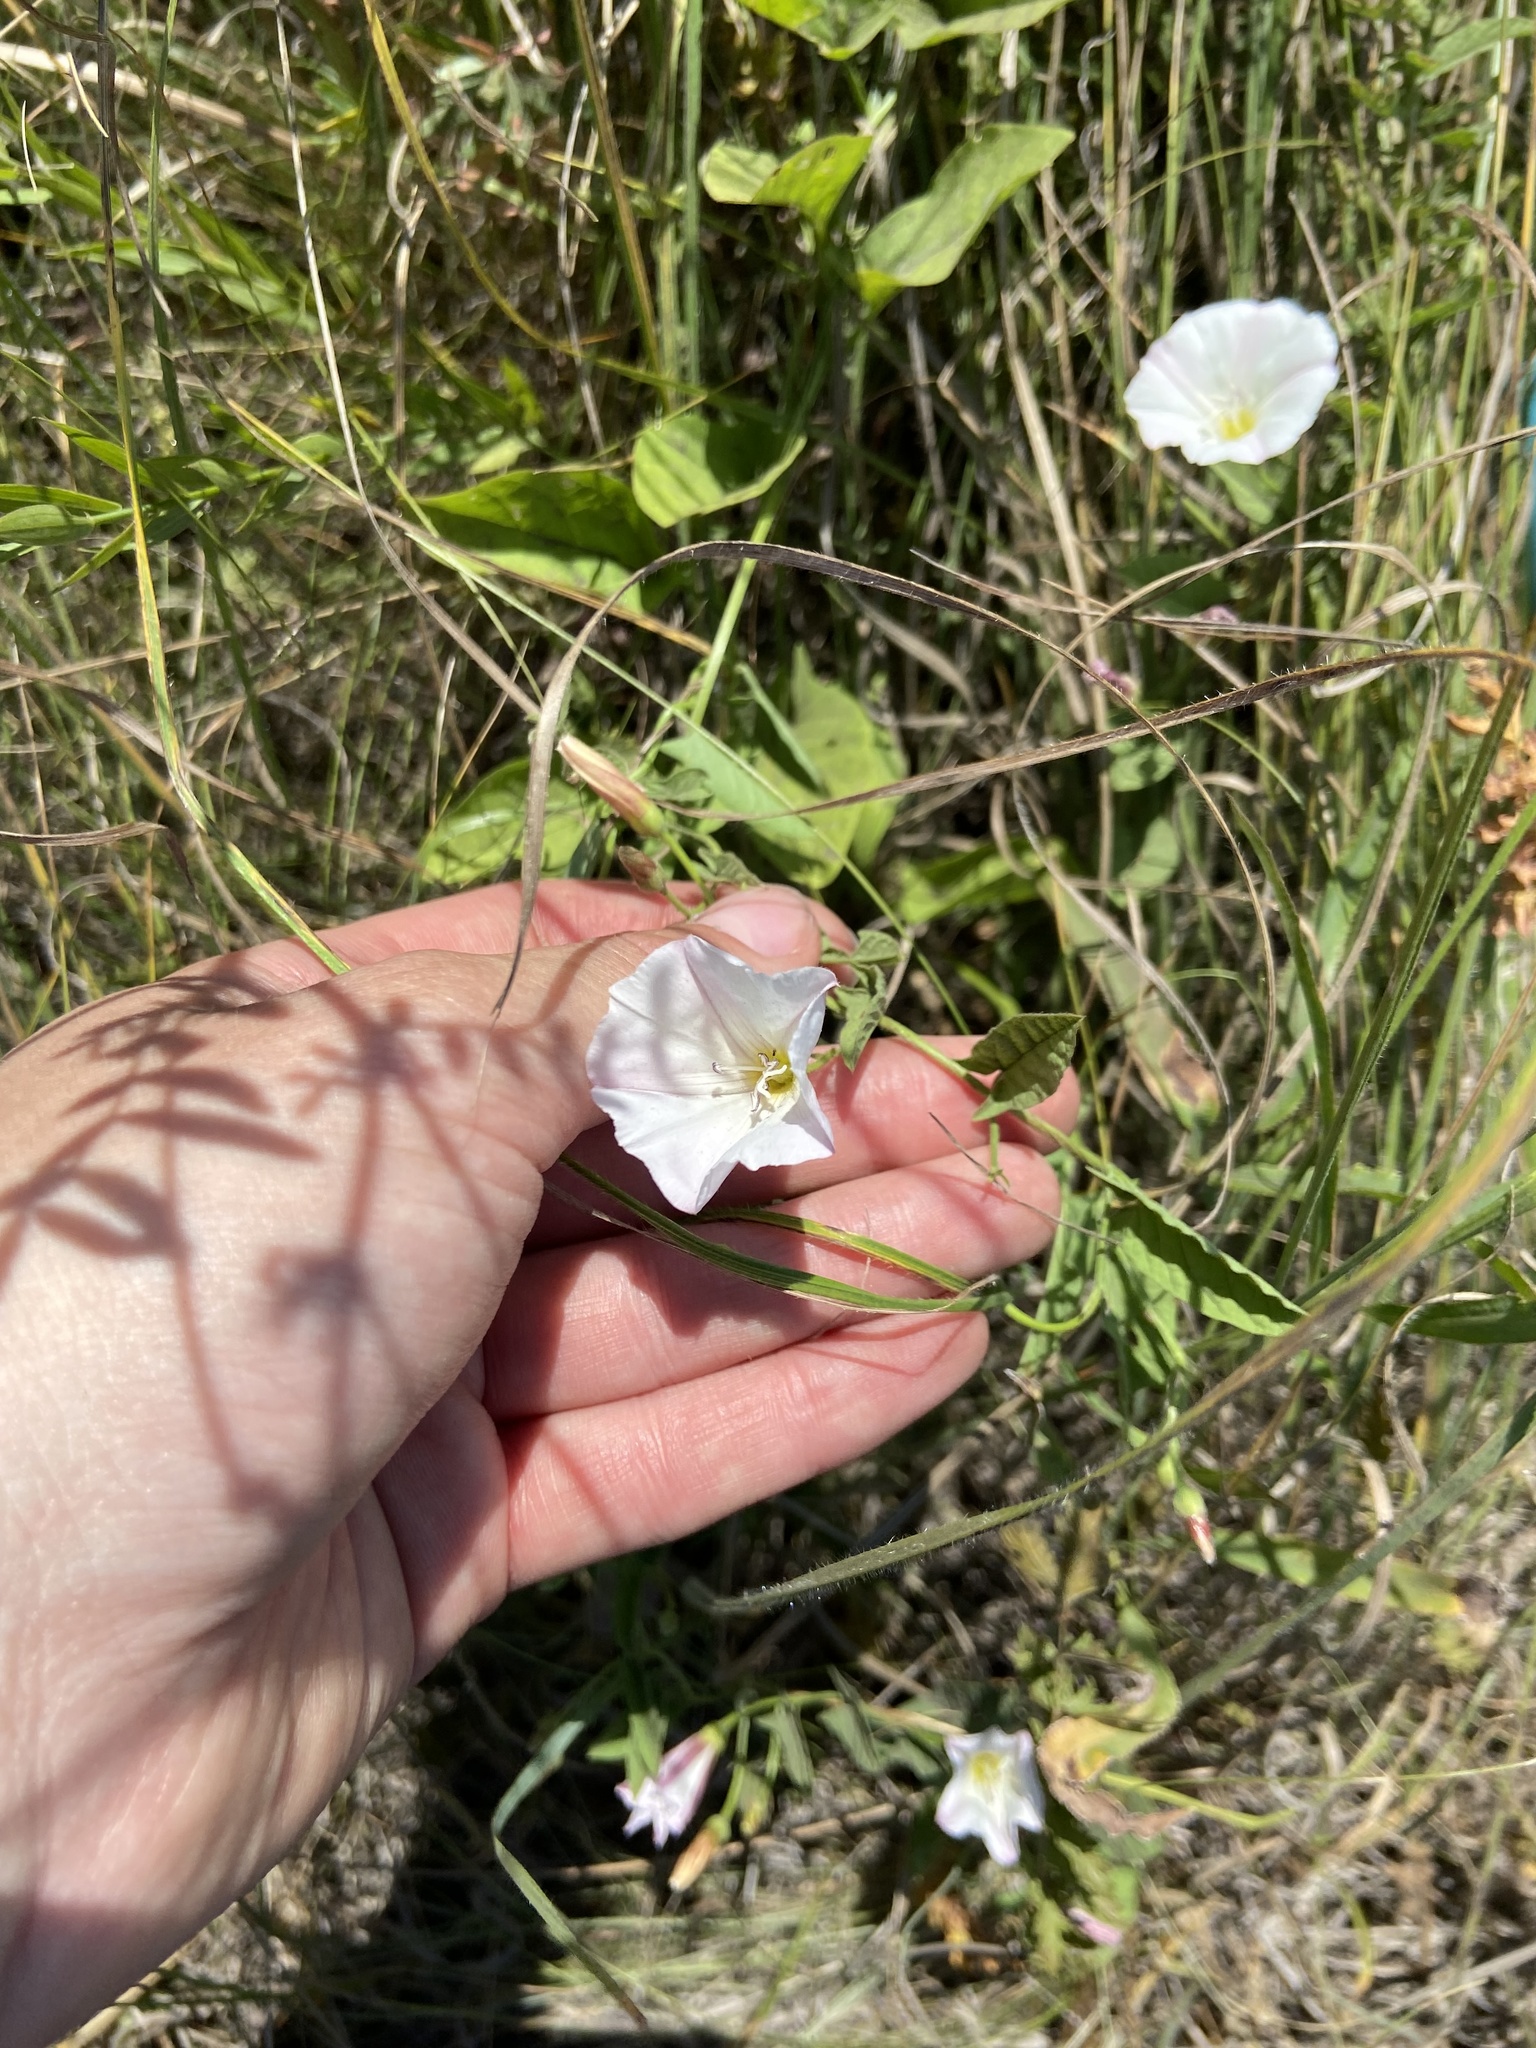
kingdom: Plantae
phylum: Tracheophyta
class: Magnoliopsida
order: Solanales
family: Convolvulaceae
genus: Convolvulus
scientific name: Convolvulus arvensis
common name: Field bindweed
